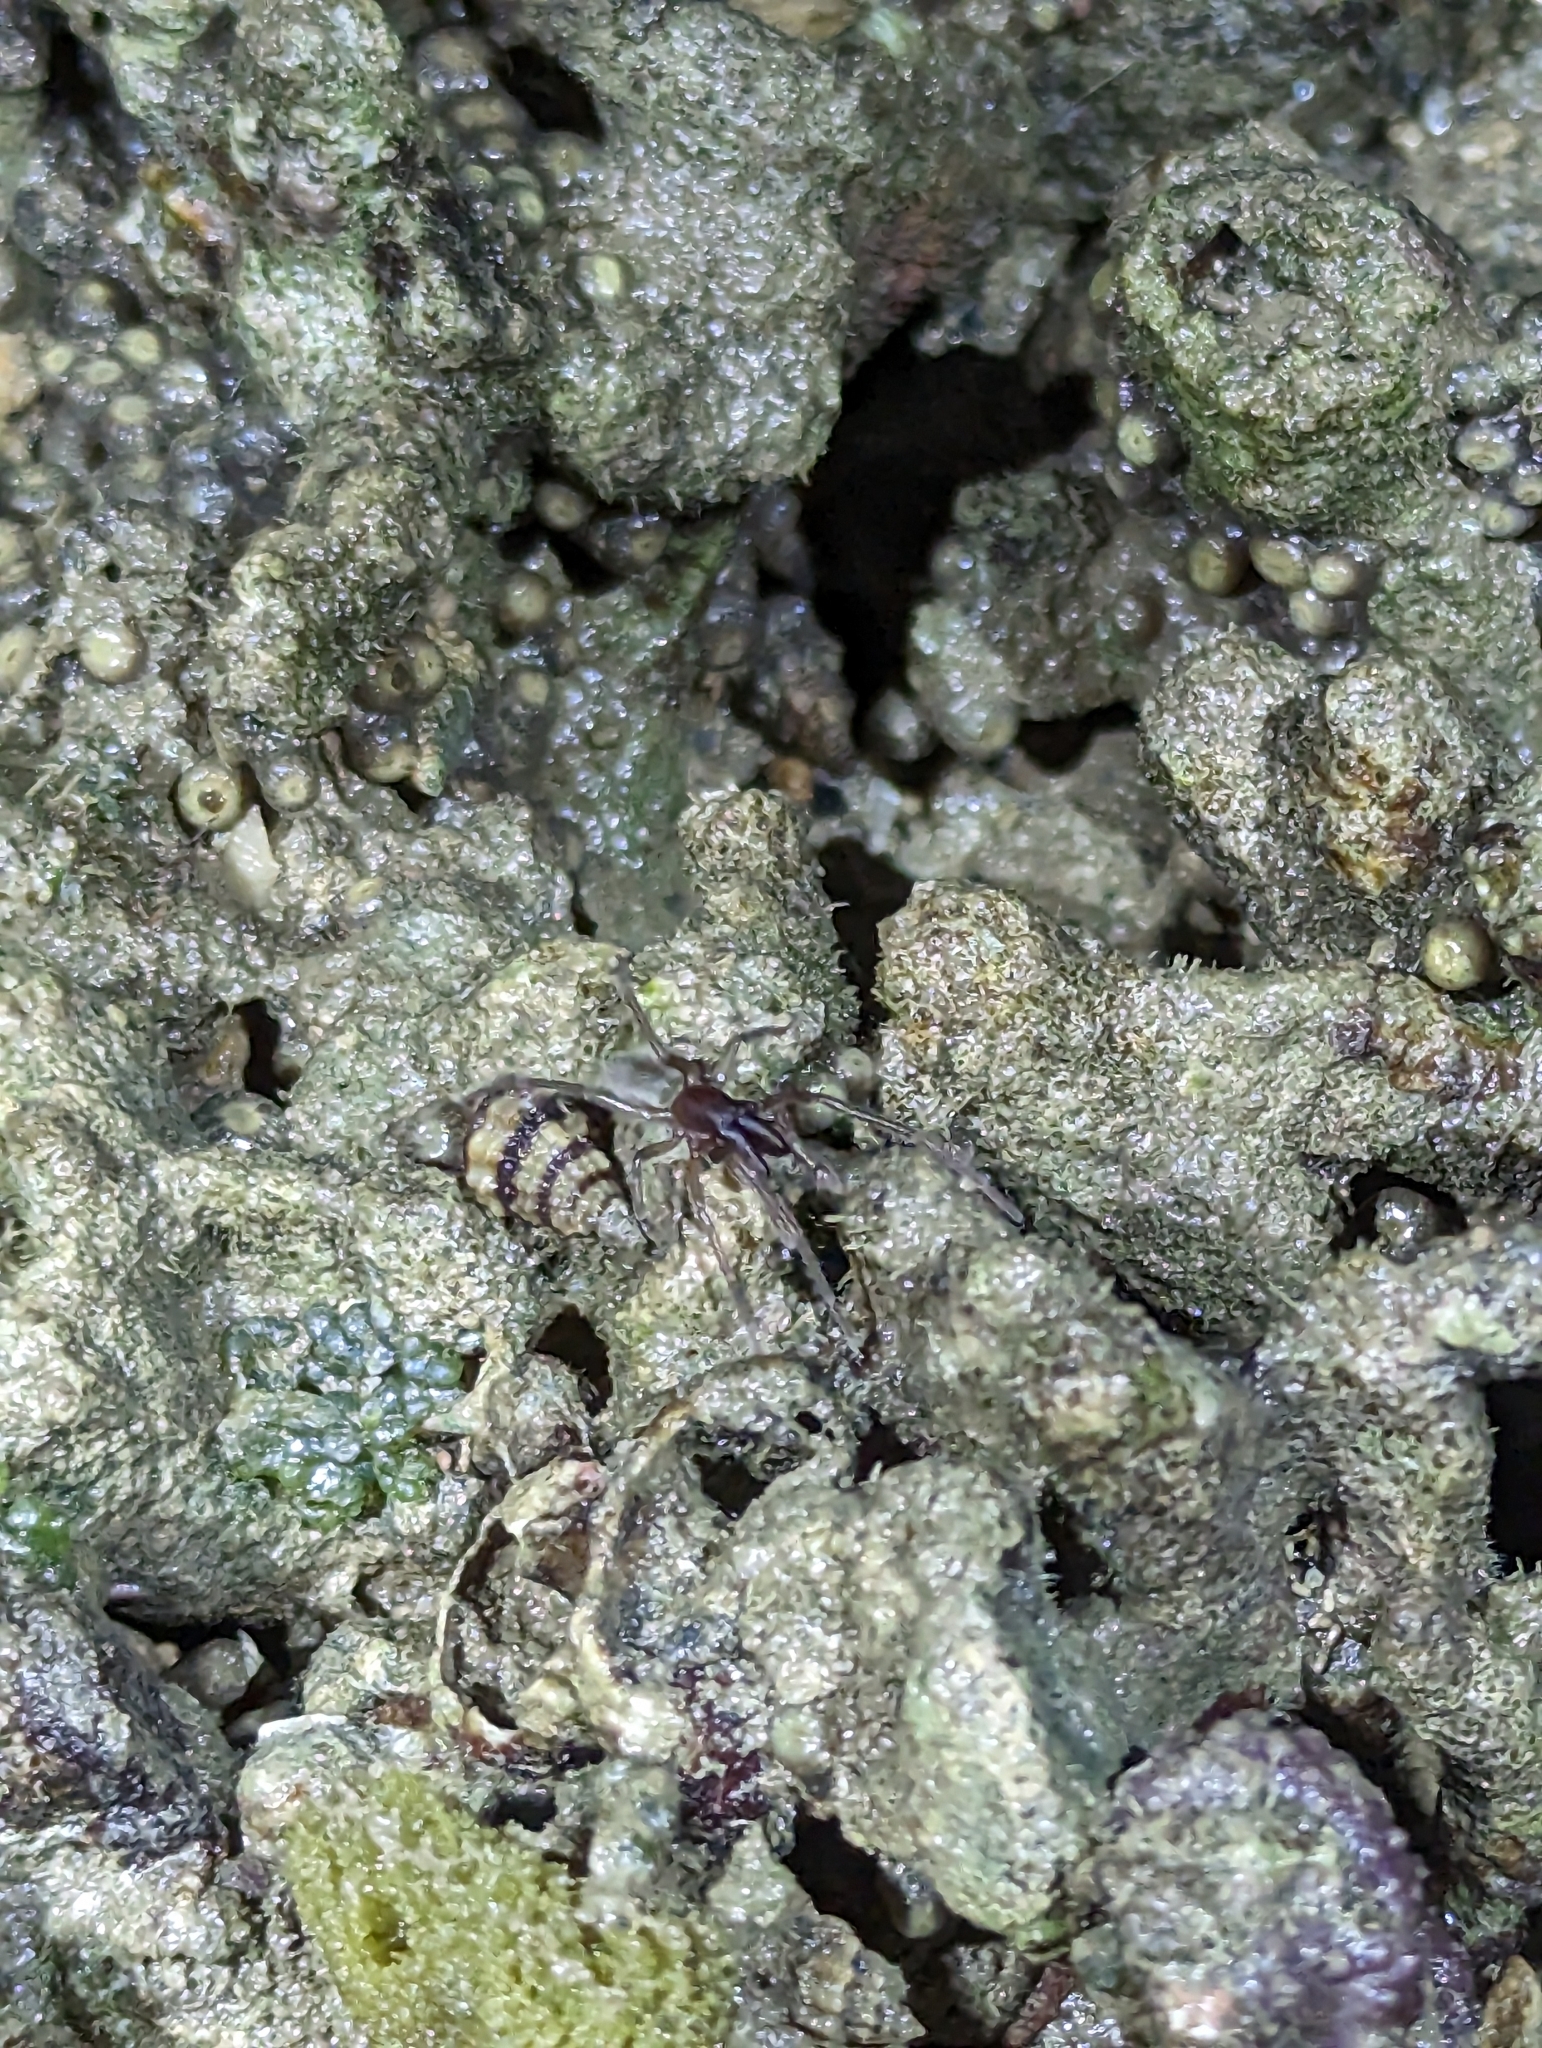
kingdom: Animalia
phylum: Arthropoda
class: Arachnida
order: Araneae
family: Desidae
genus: Desis
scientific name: Desis bobmarleyi
